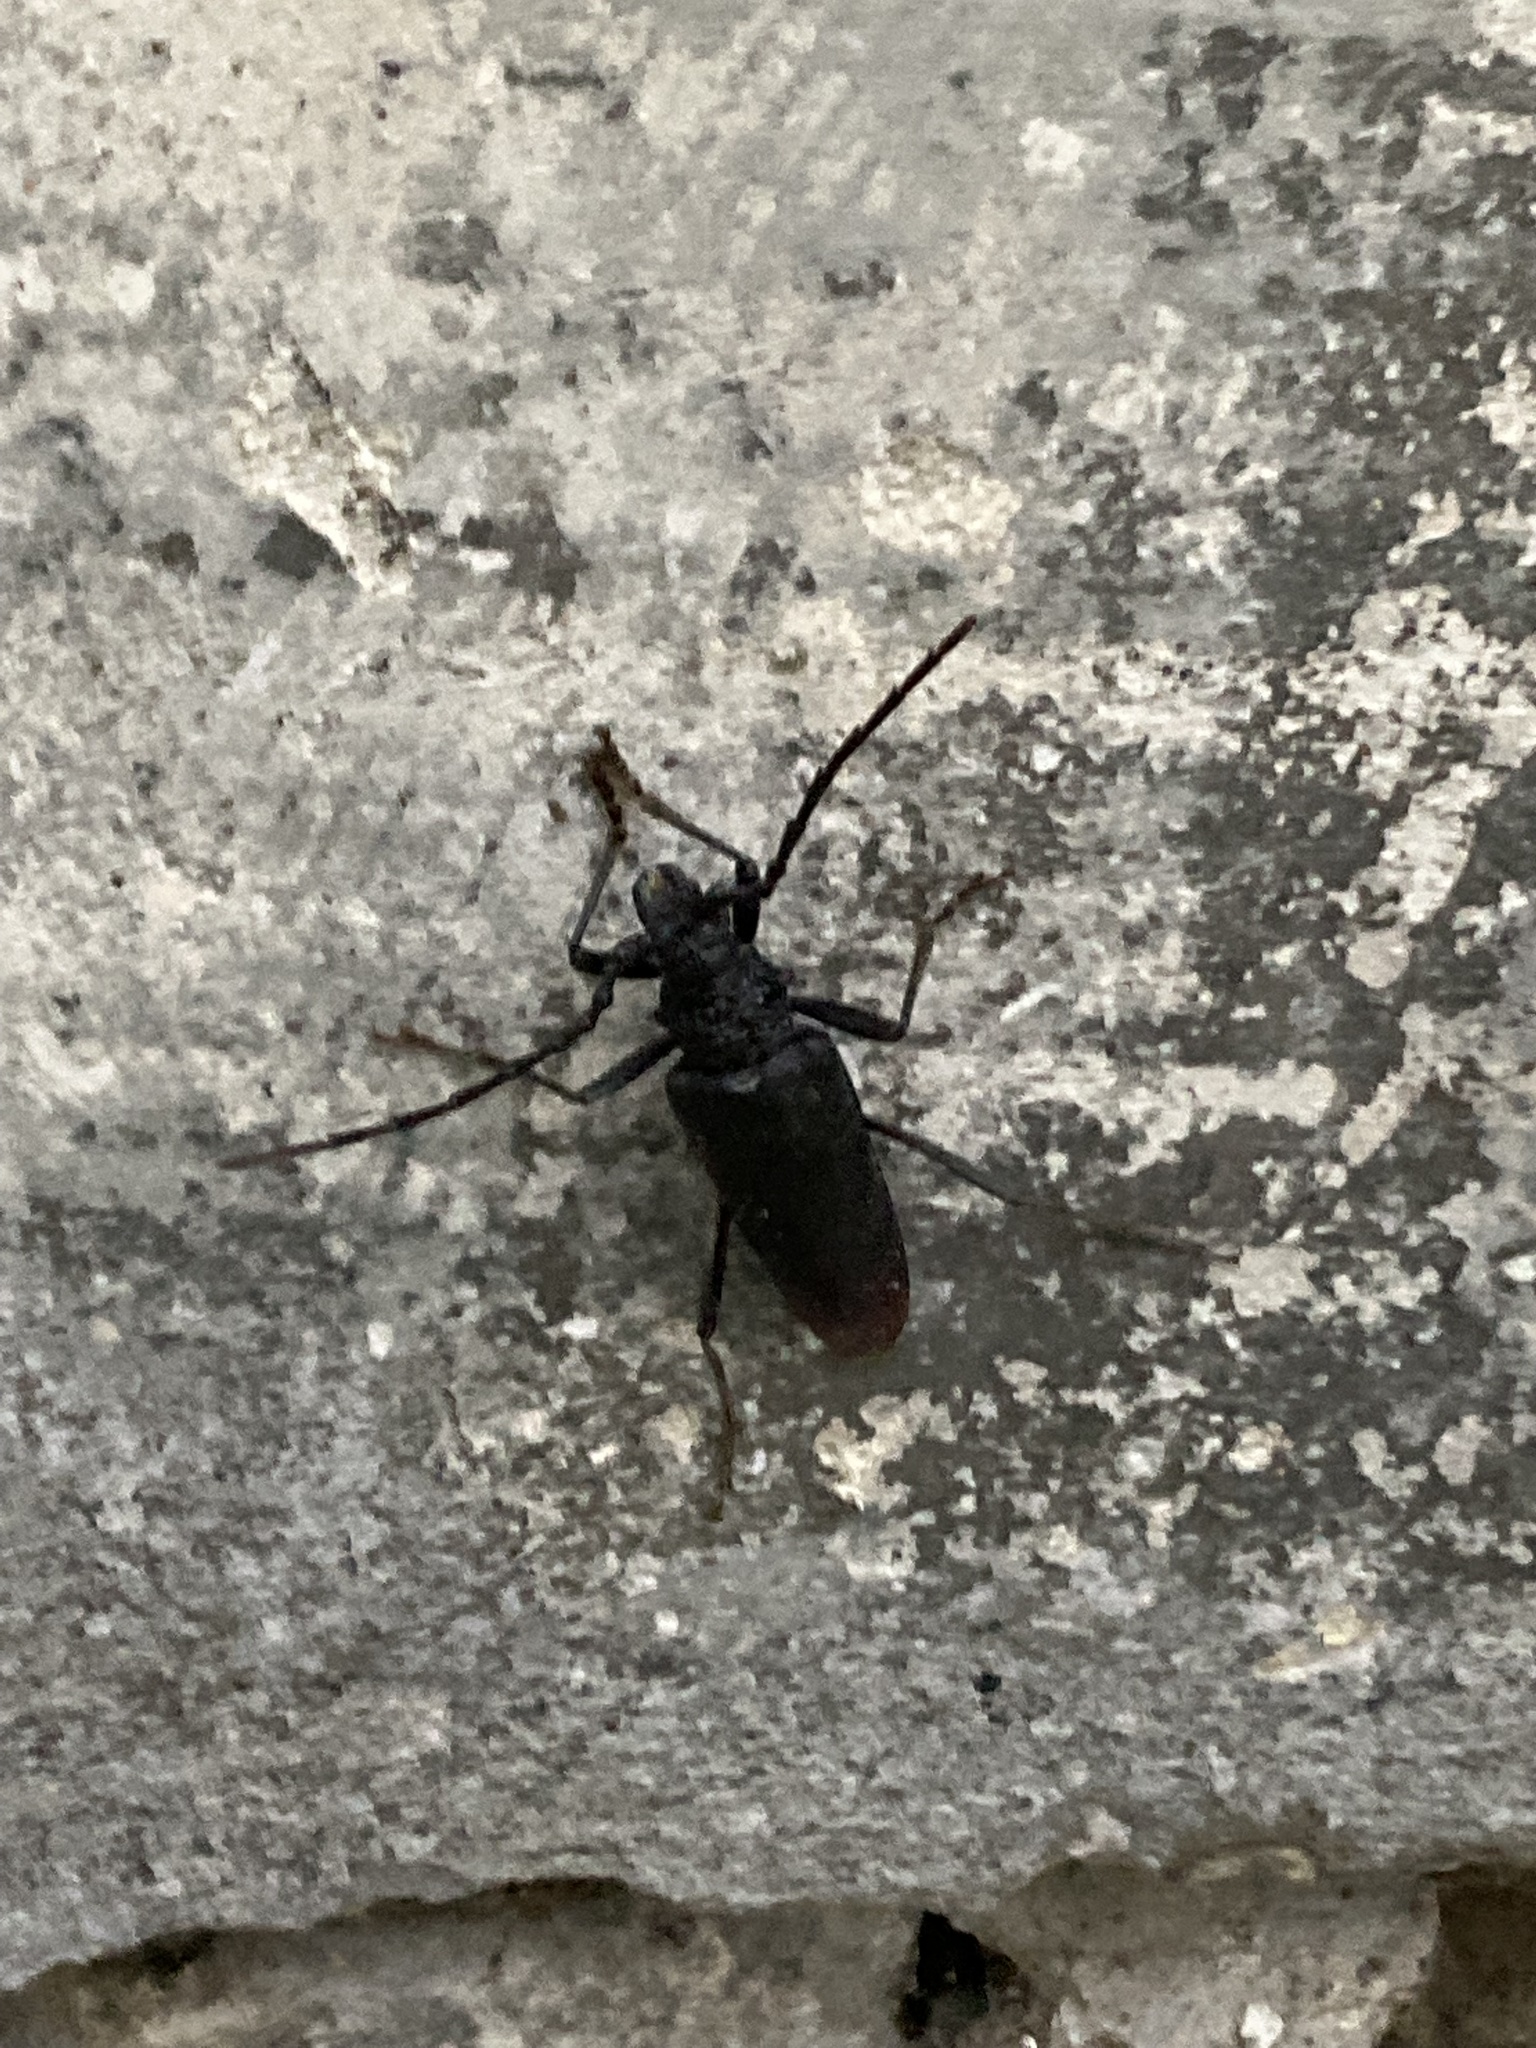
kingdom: Animalia
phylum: Arthropoda
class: Insecta
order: Coleoptera
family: Cerambycidae
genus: Cerambyx
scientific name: Cerambyx cerdo
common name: Cerambyx longicorn
